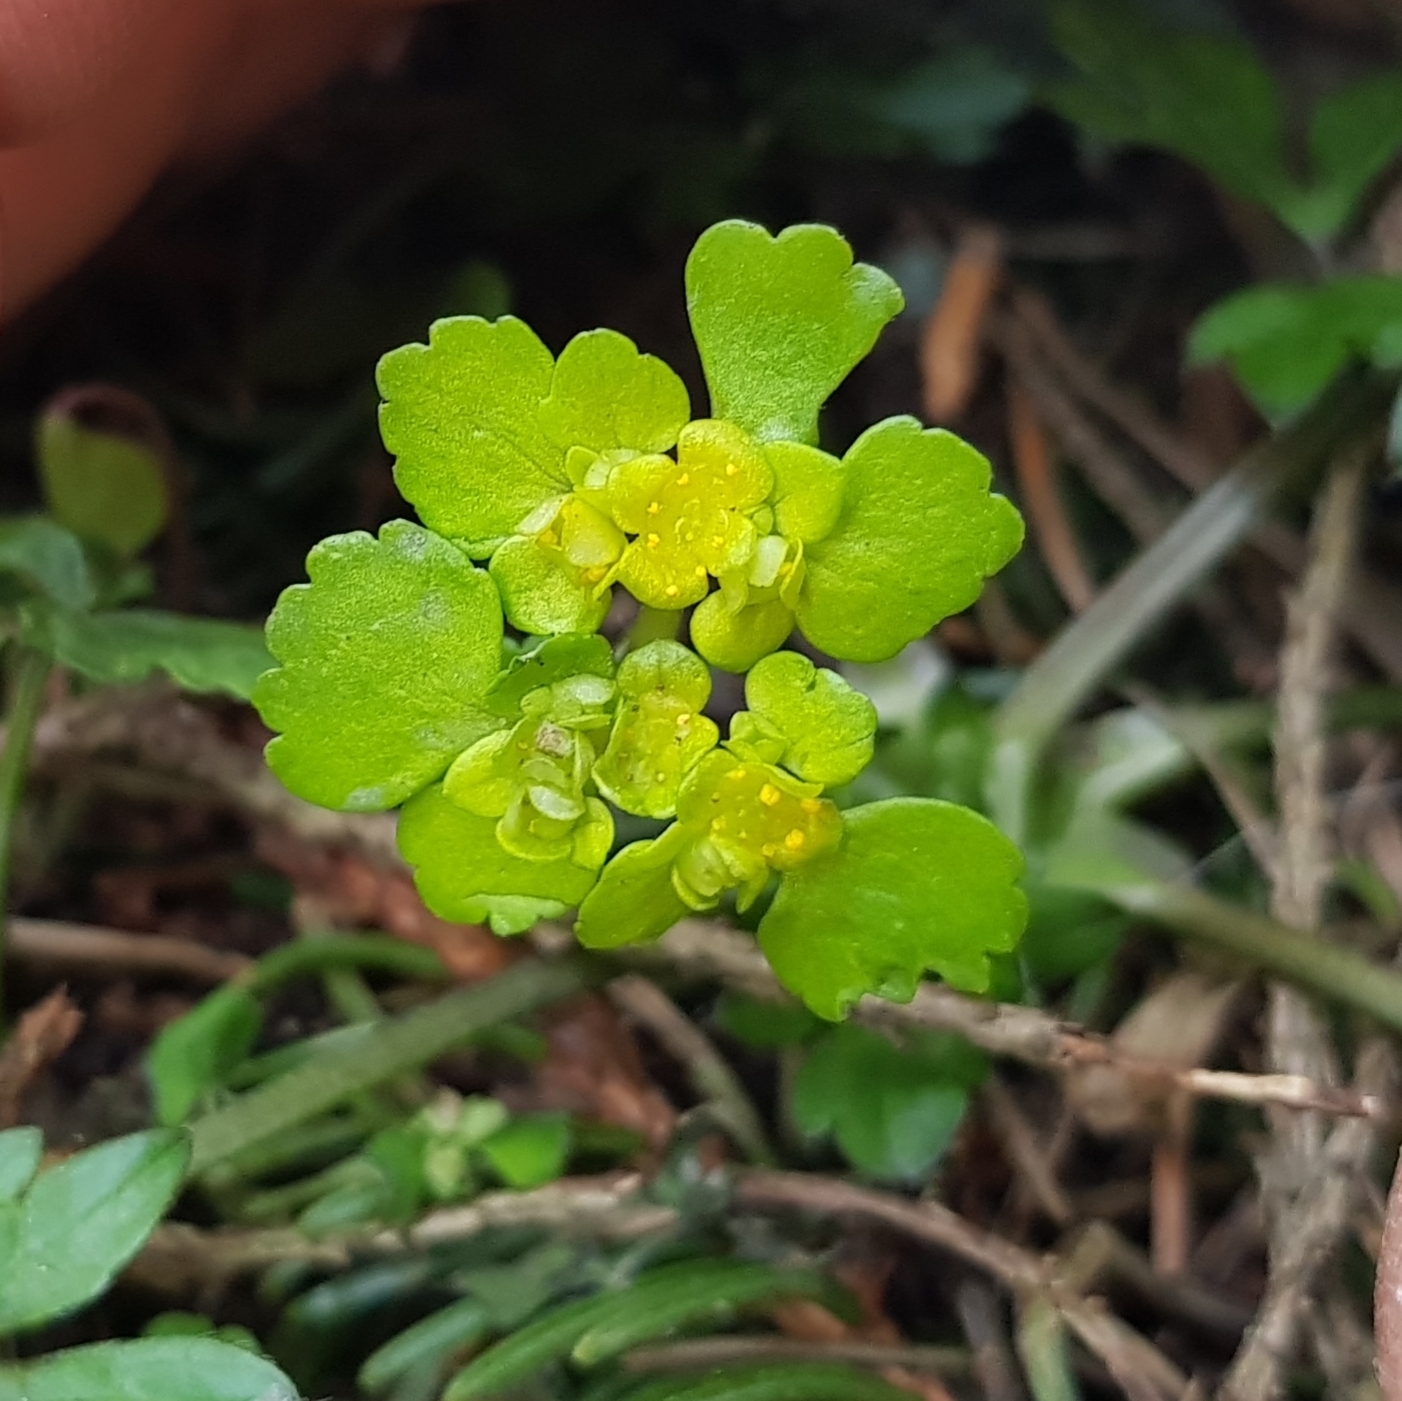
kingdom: Plantae
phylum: Tracheophyta
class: Magnoliopsida
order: Saxifragales
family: Saxifragaceae
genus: Chrysosplenium
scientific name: Chrysosplenium alternifolium
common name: Alternate-leaved golden-saxifrage
